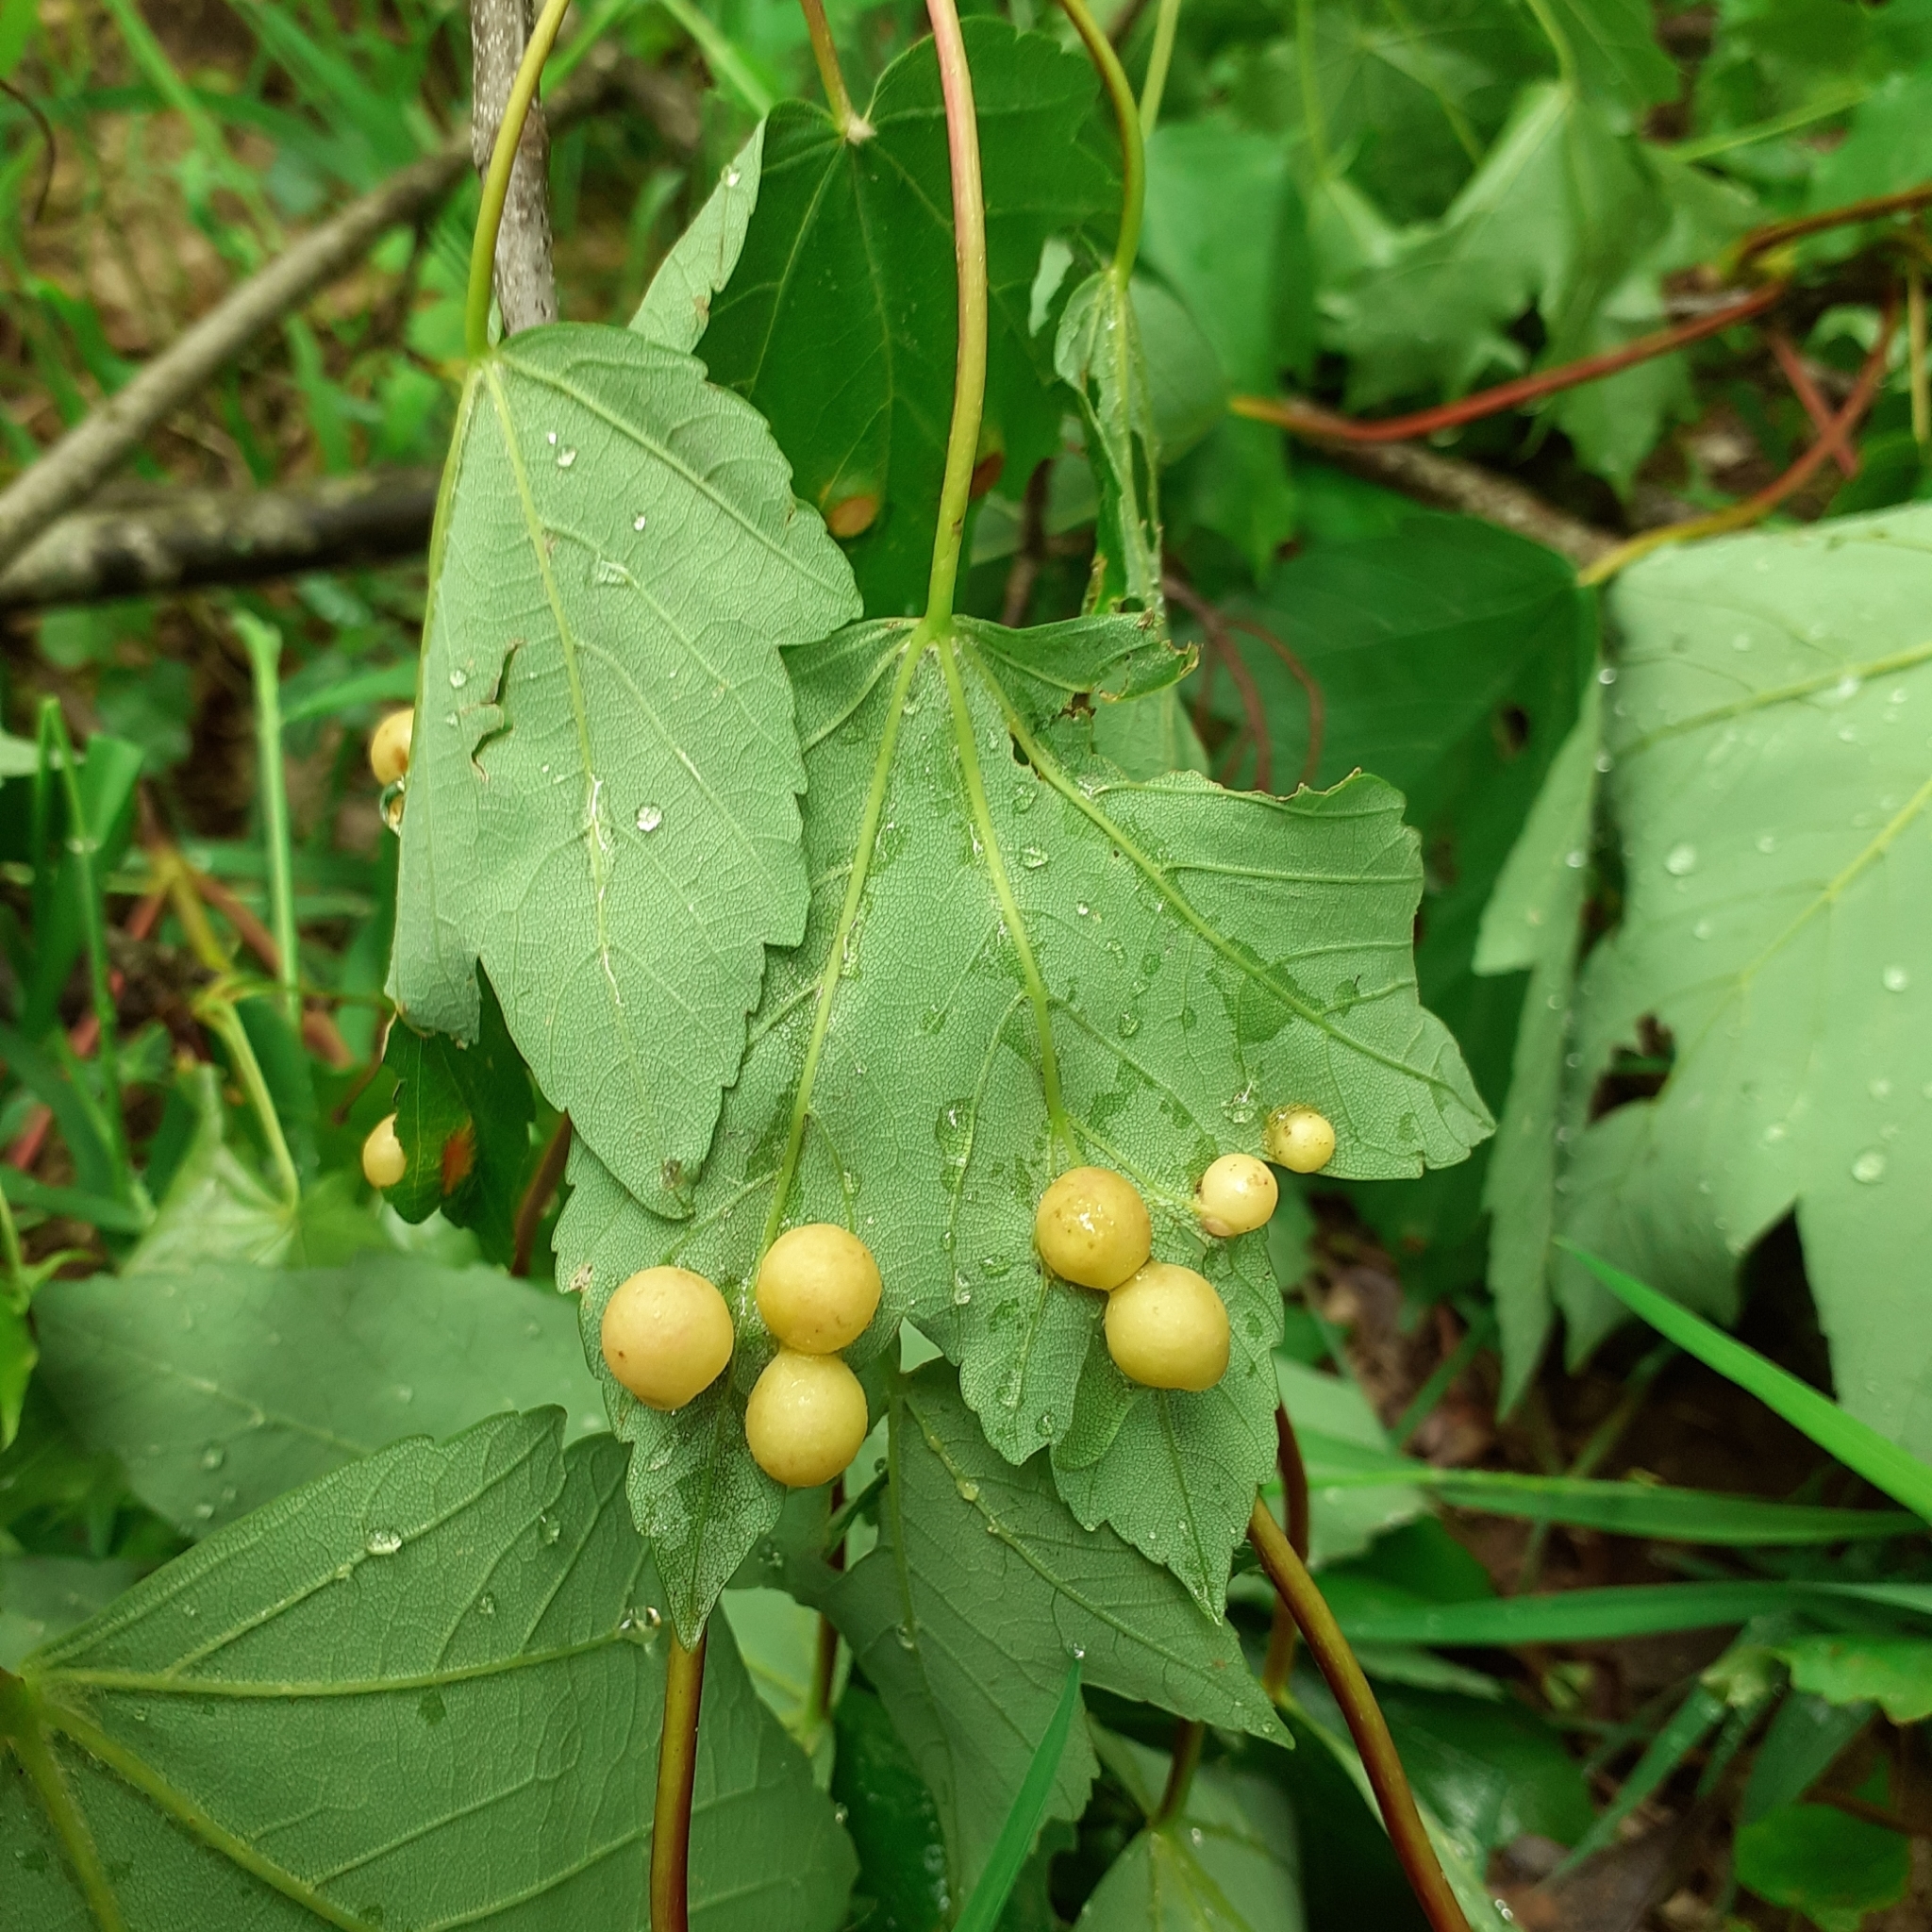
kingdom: Animalia
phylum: Arthropoda
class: Insecta
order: Hymenoptera
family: Cynipidae
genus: Pediaspis
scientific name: Pediaspis aceris
